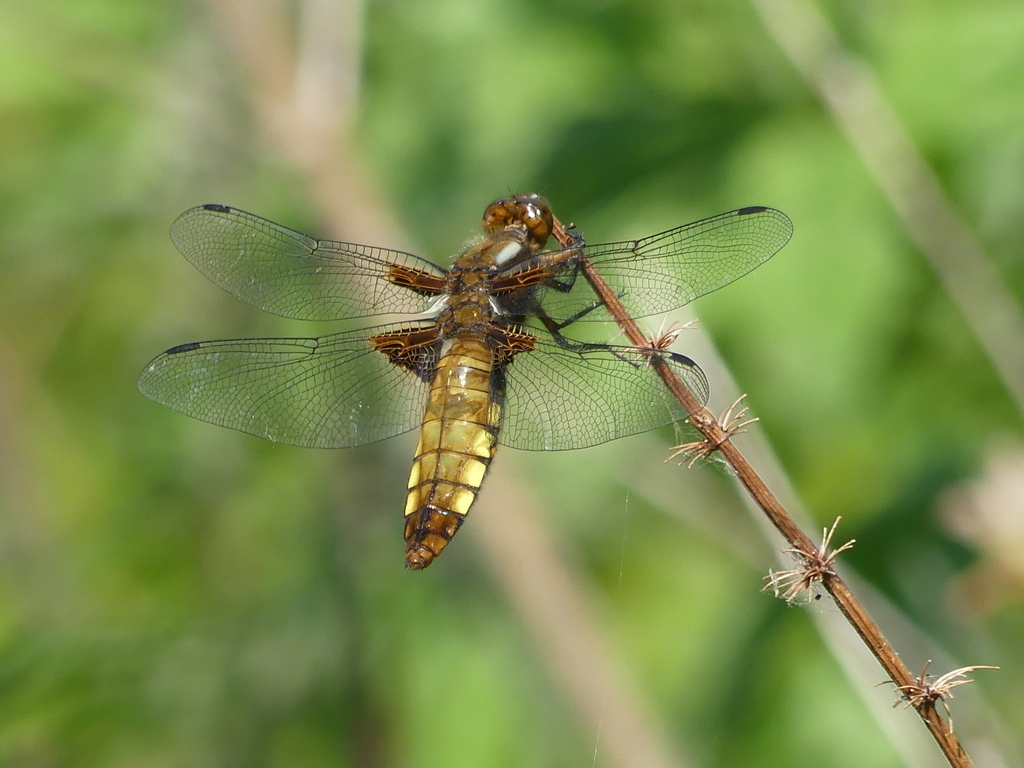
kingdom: Animalia
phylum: Arthropoda
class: Insecta
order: Odonata
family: Libellulidae
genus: Libellula
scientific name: Libellula depressa
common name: Broad-bodied chaser
